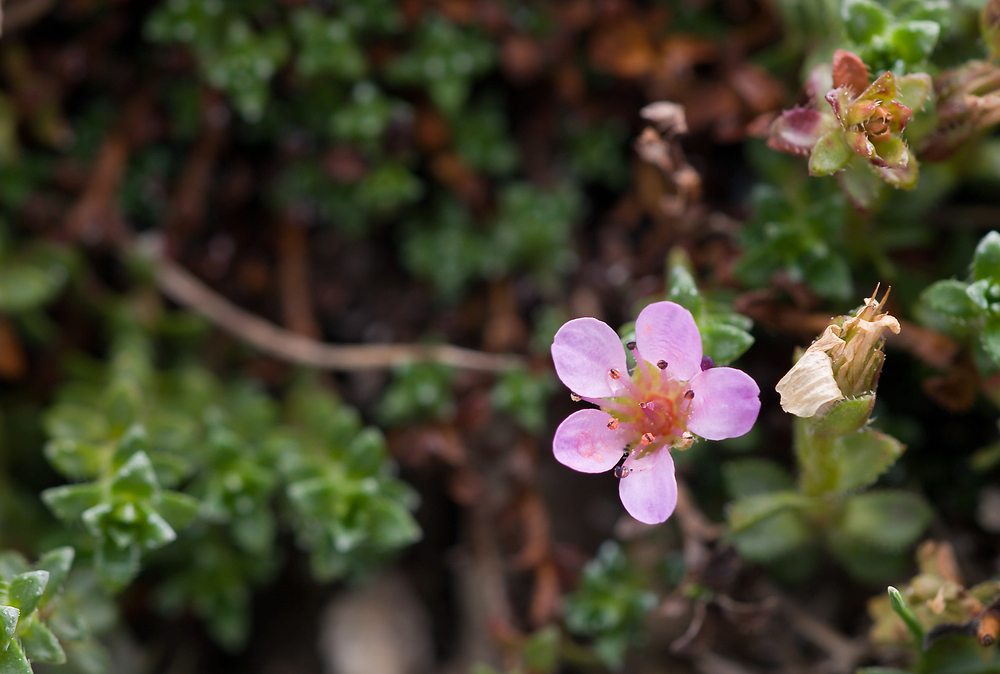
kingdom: Plantae
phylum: Tracheophyta
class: Magnoliopsida
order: Saxifragales
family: Saxifragaceae
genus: Saxifraga
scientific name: Saxifraga oppositifolia
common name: Purple saxifrage
